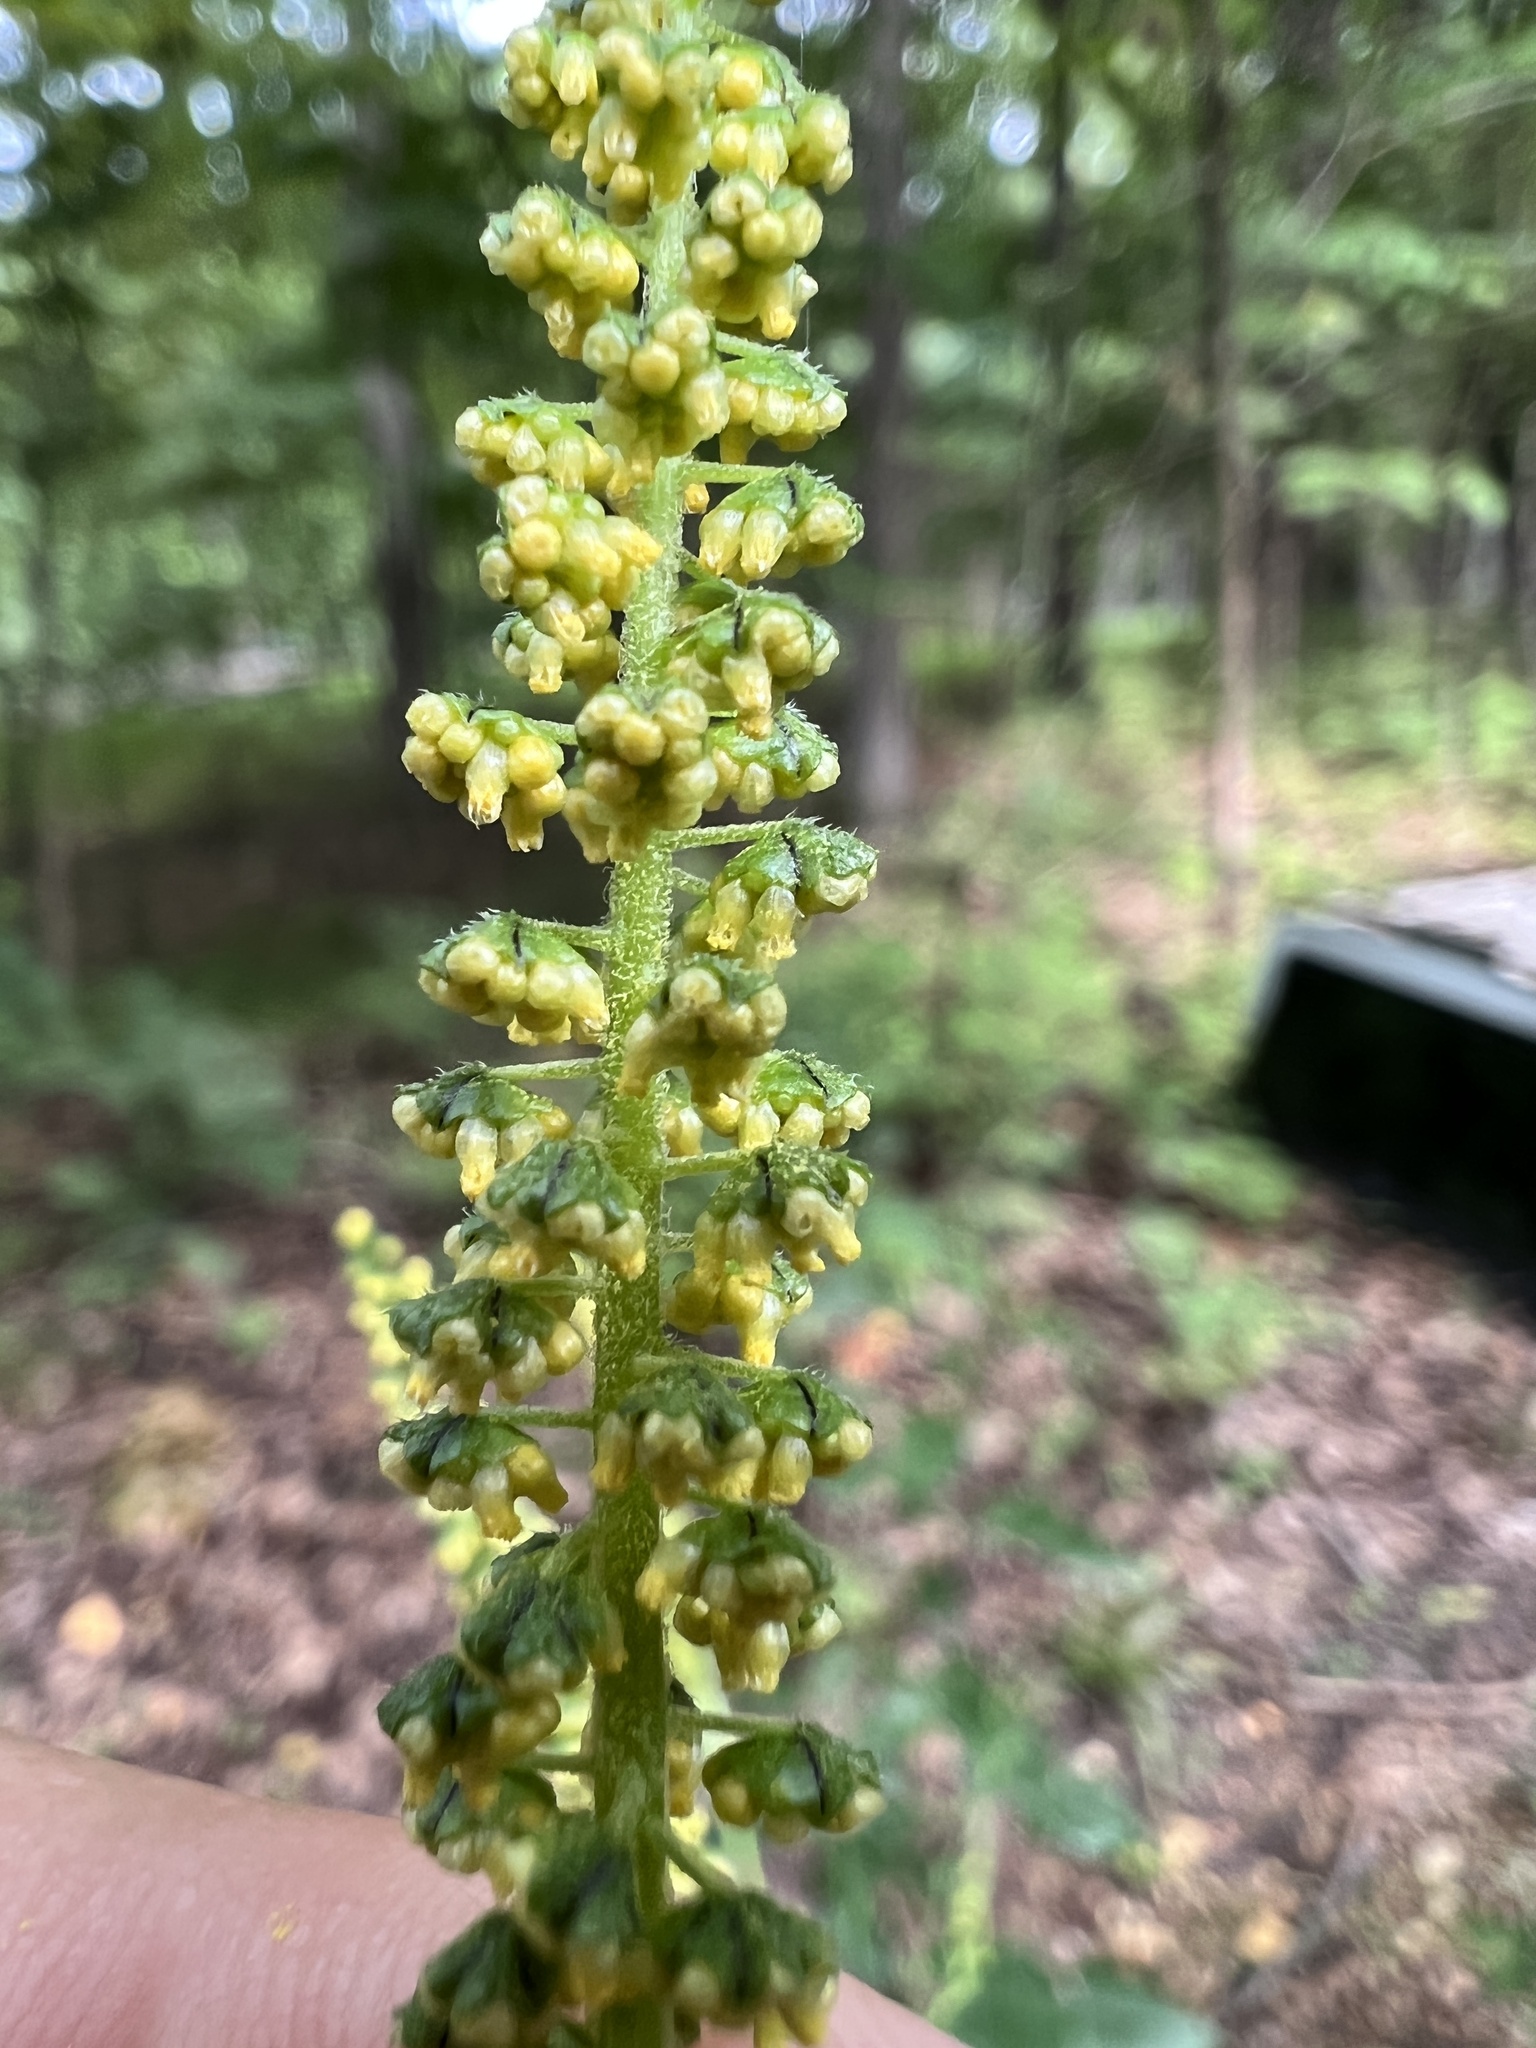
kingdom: Plantae
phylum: Tracheophyta
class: Magnoliopsida
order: Asterales
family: Asteraceae
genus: Ambrosia
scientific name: Ambrosia trifida
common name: Giant ragweed
